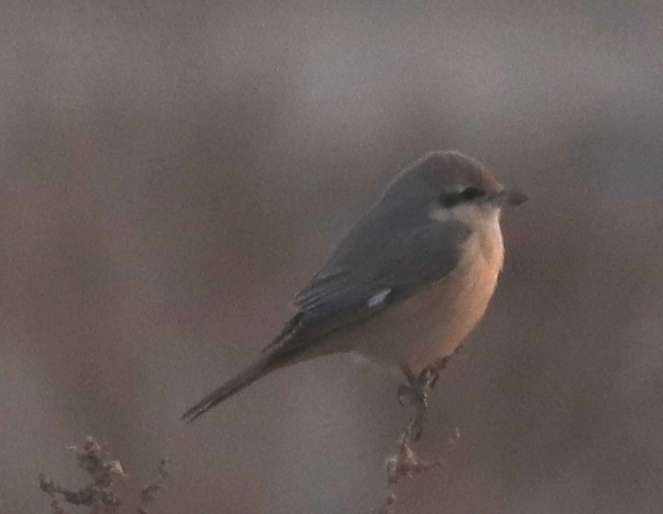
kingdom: Animalia
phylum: Chordata
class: Aves
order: Passeriformes
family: Laniidae
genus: Lanius
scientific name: Lanius isabellinus
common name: Isabelline shrike
